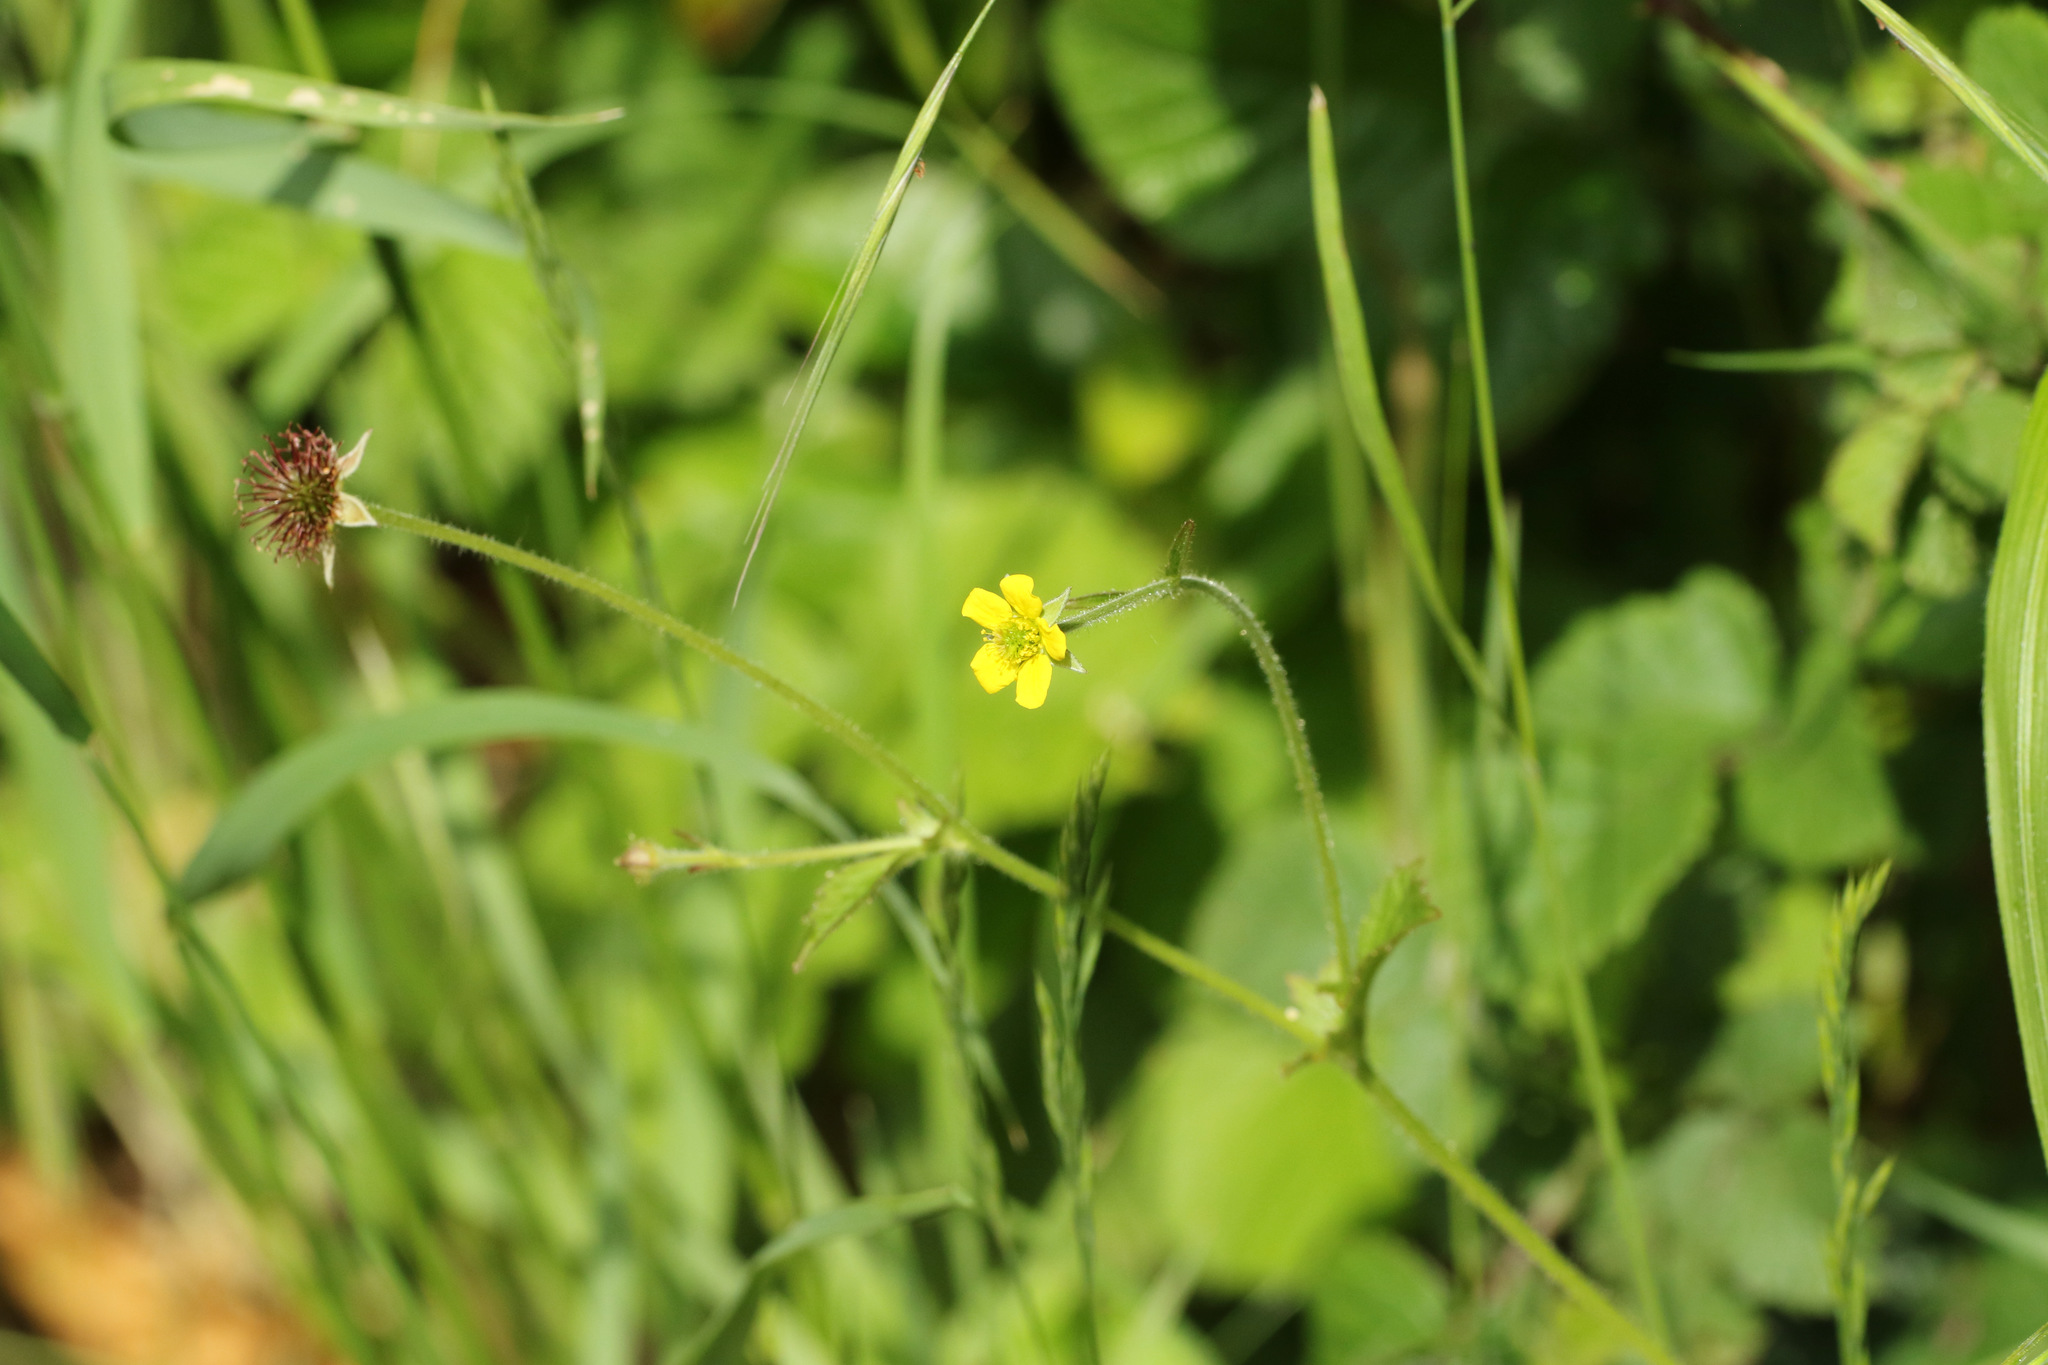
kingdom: Plantae
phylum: Tracheophyta
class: Magnoliopsida
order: Rosales
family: Rosaceae
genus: Geum
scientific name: Geum urbanum
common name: Wood avens
